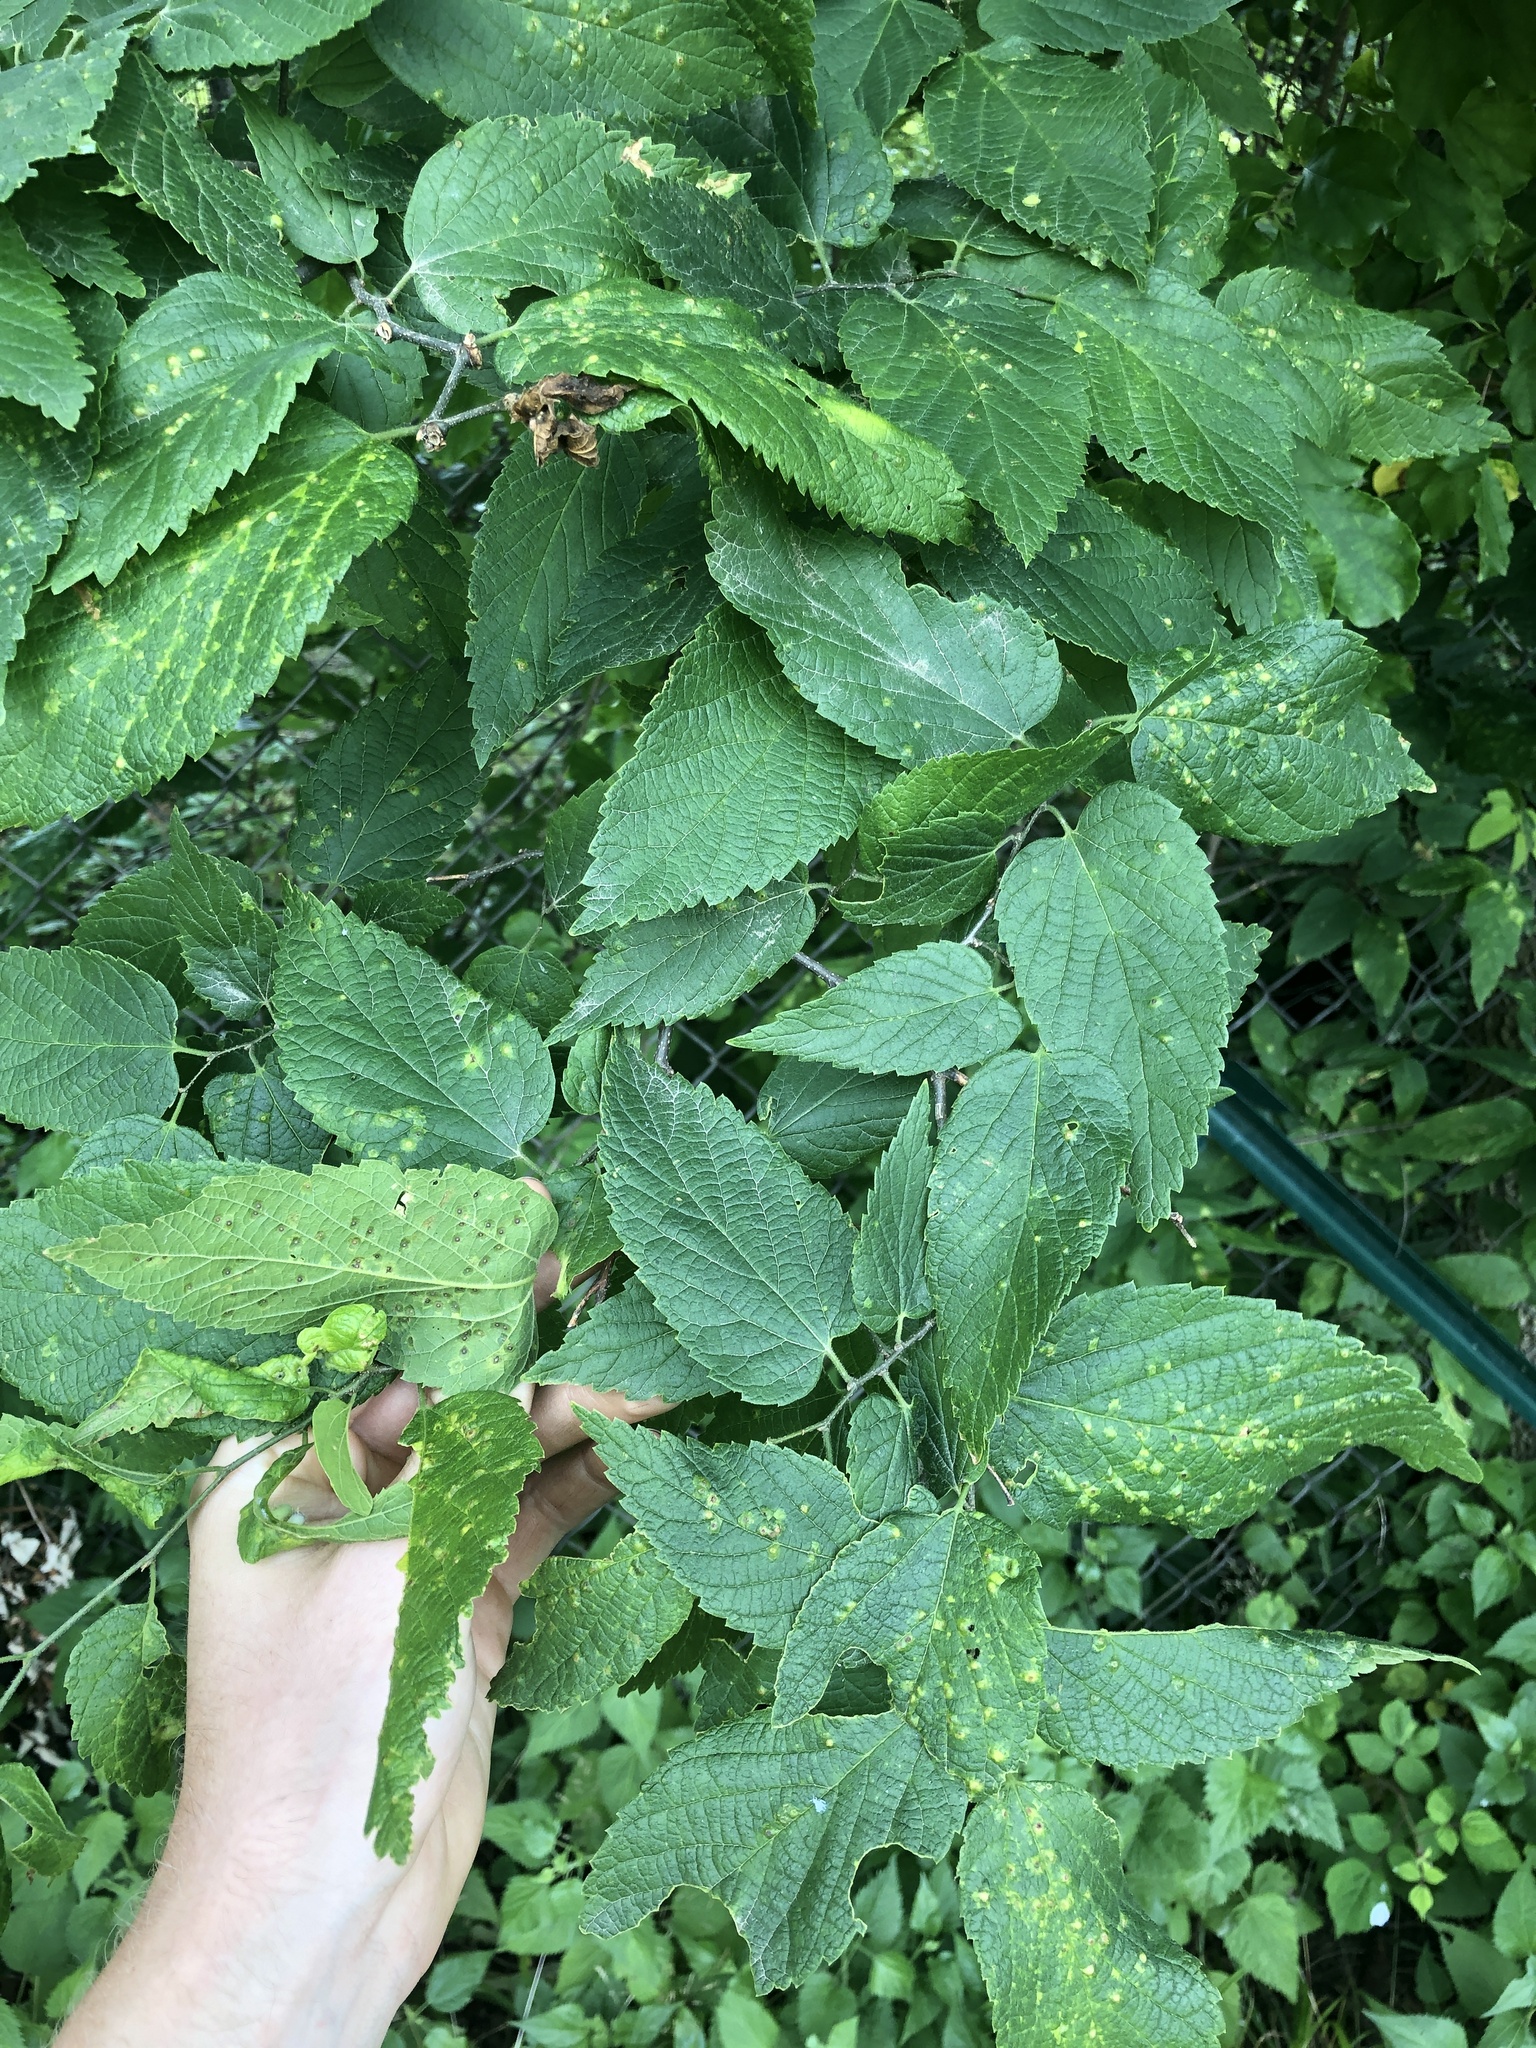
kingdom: Plantae
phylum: Tracheophyta
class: Magnoliopsida
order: Rosales
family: Cannabaceae
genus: Celtis
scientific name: Celtis occidentalis
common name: Common hackberry
